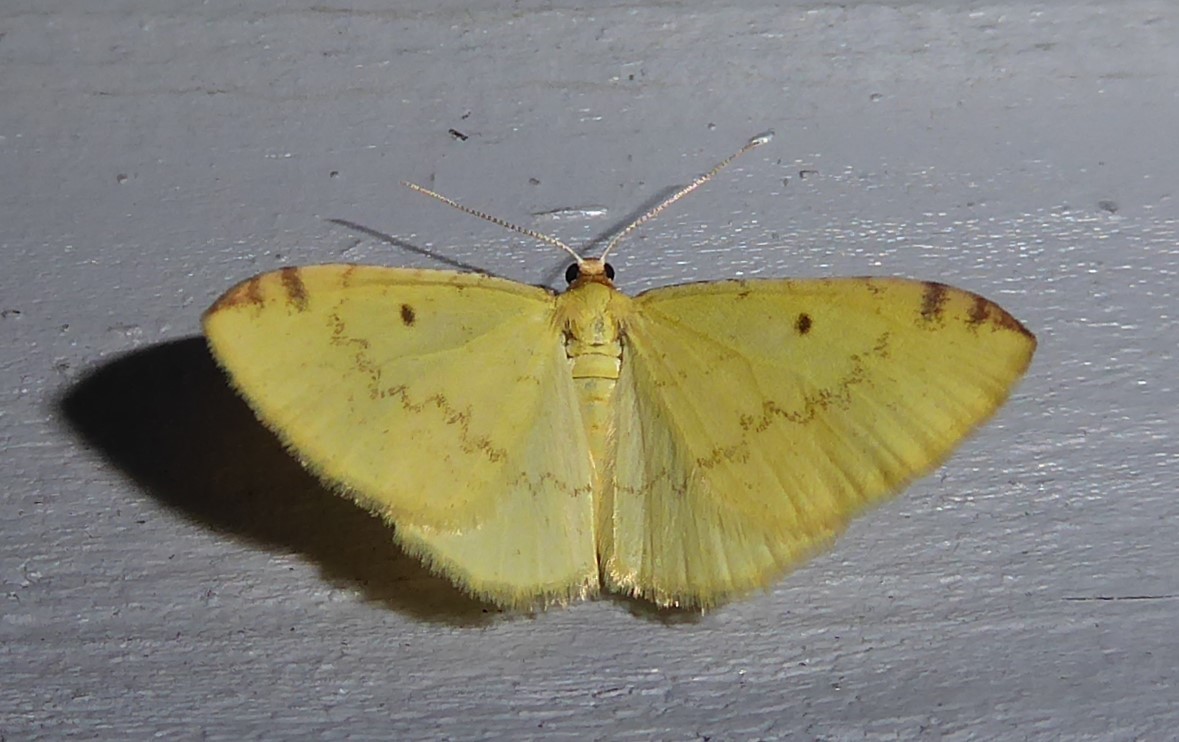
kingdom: Animalia
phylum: Arthropoda
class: Insecta
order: Lepidoptera
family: Geometridae
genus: Epiphryne
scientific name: Epiphryne undosata
